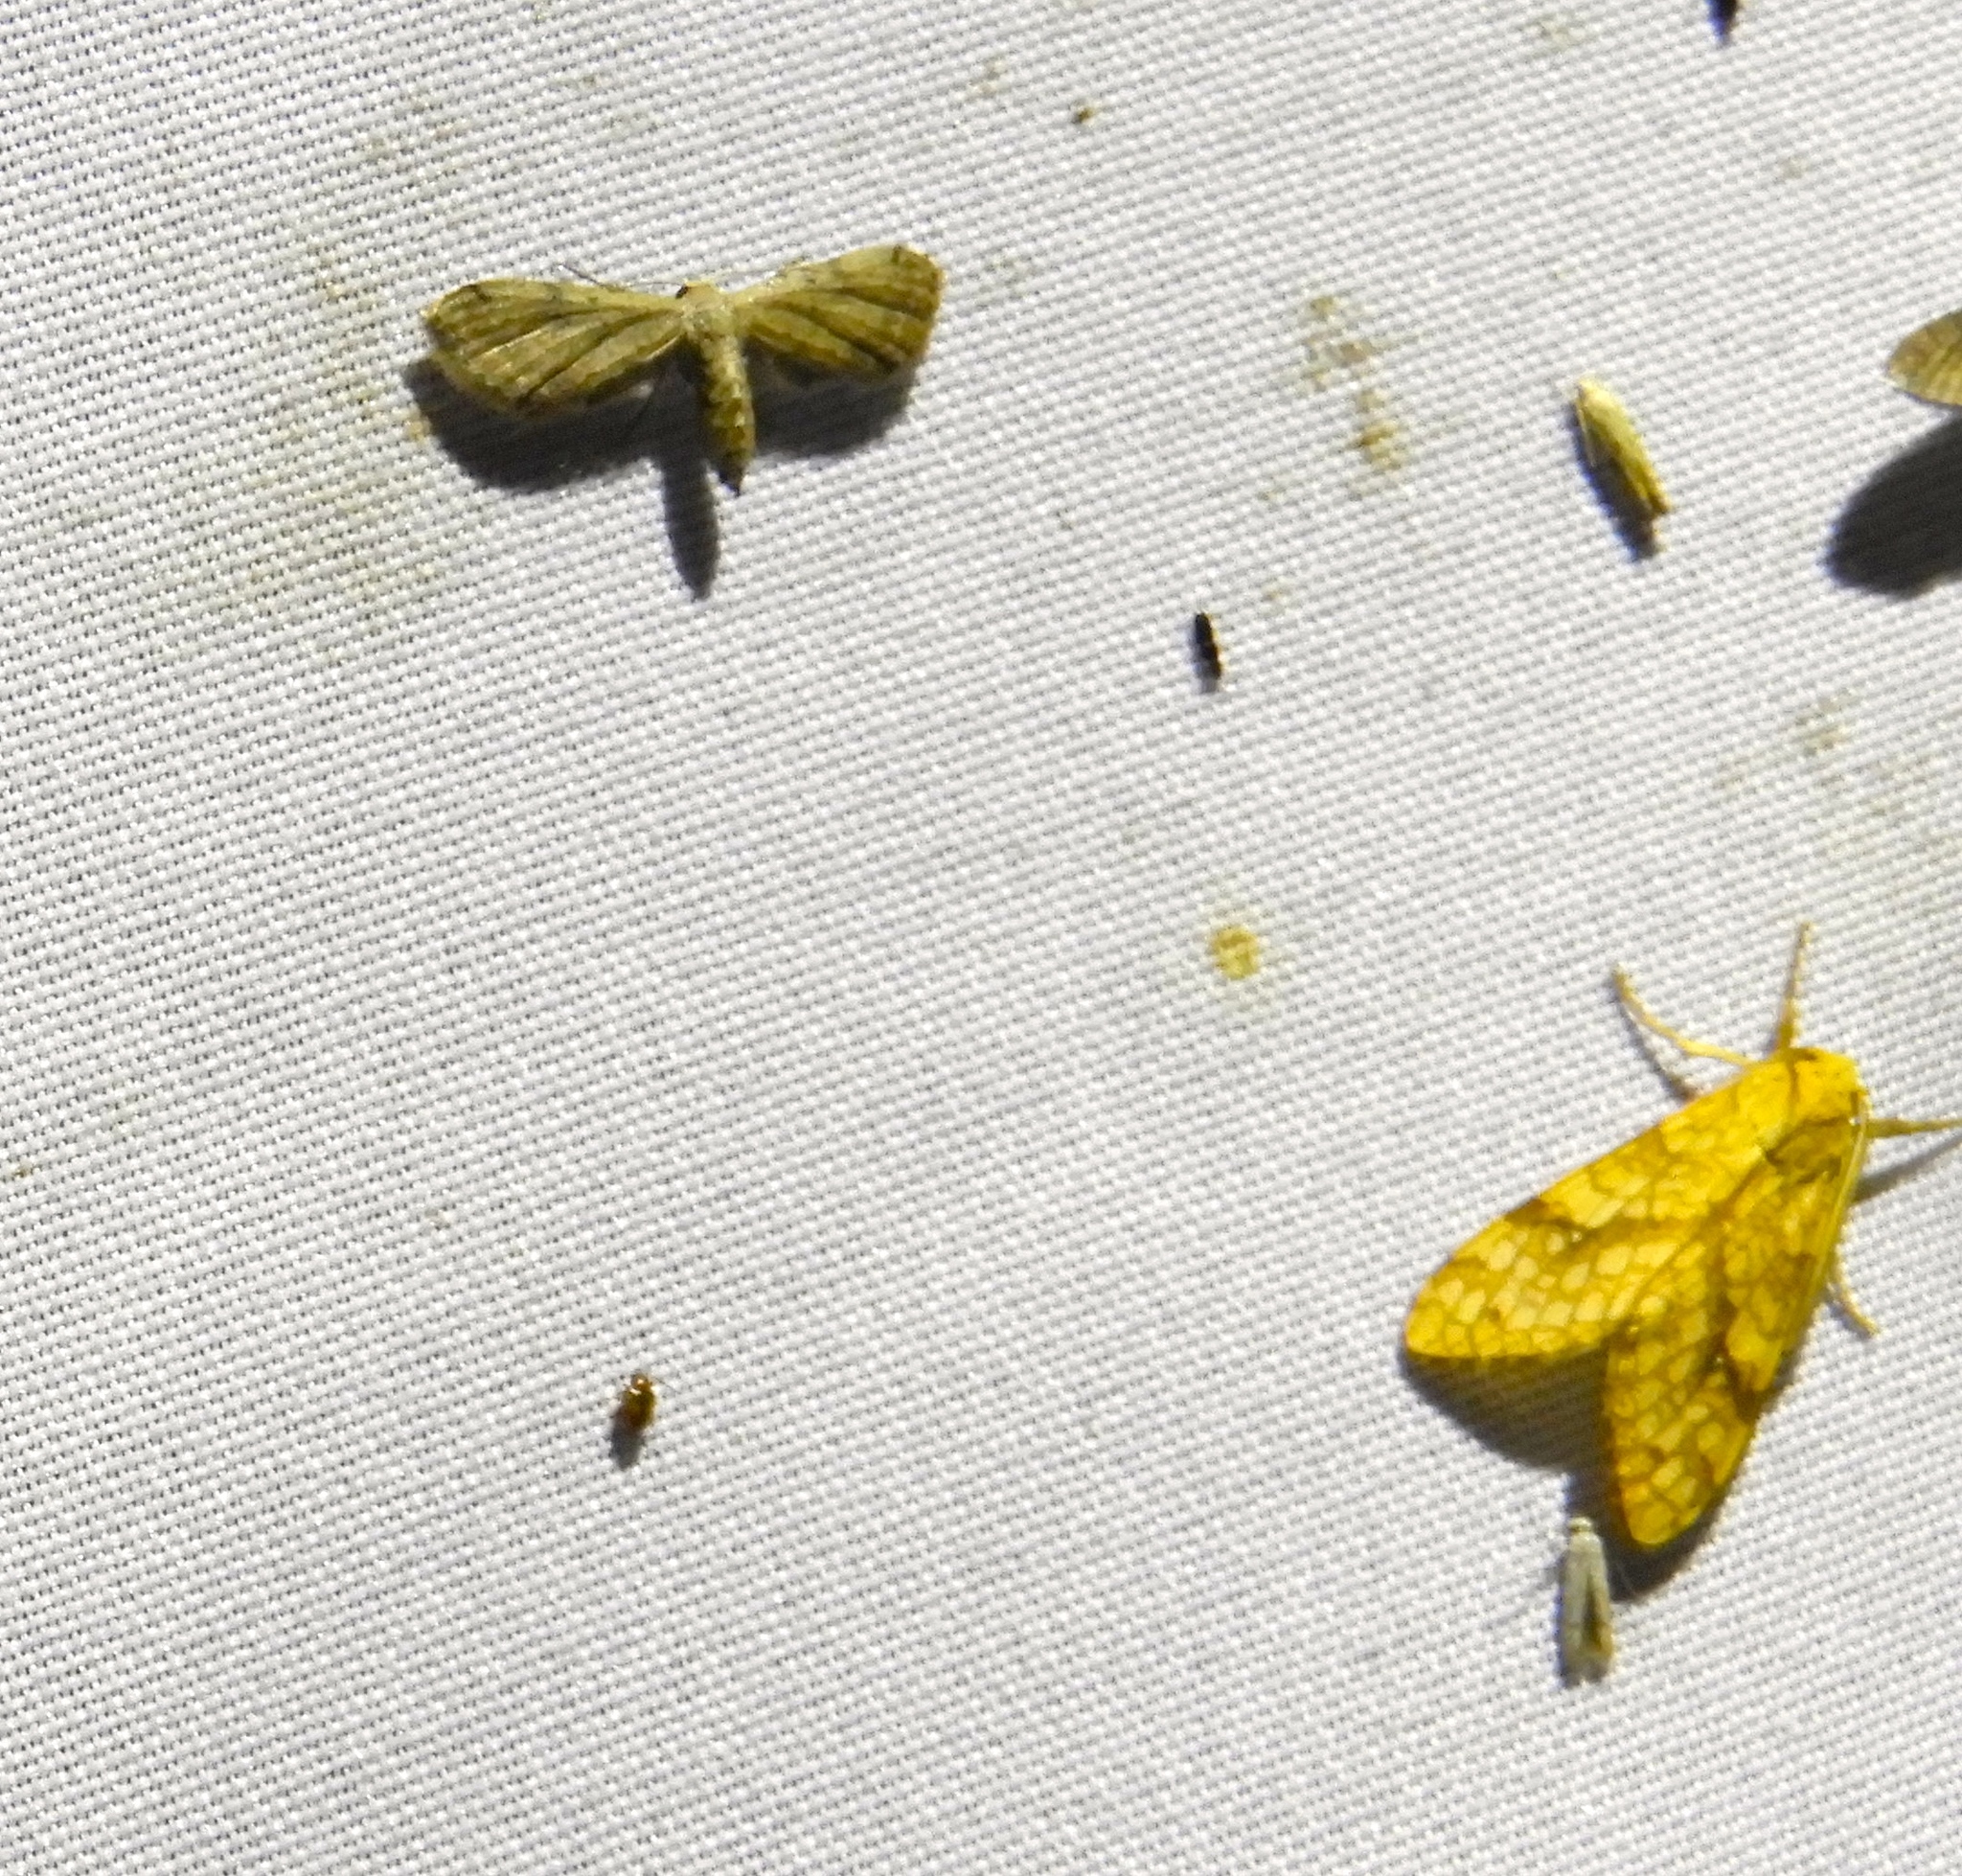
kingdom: Animalia
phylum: Arthropoda
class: Insecta
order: Lepidoptera
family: Erebidae
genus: Lophocampa
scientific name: Lophocampa annulosa
